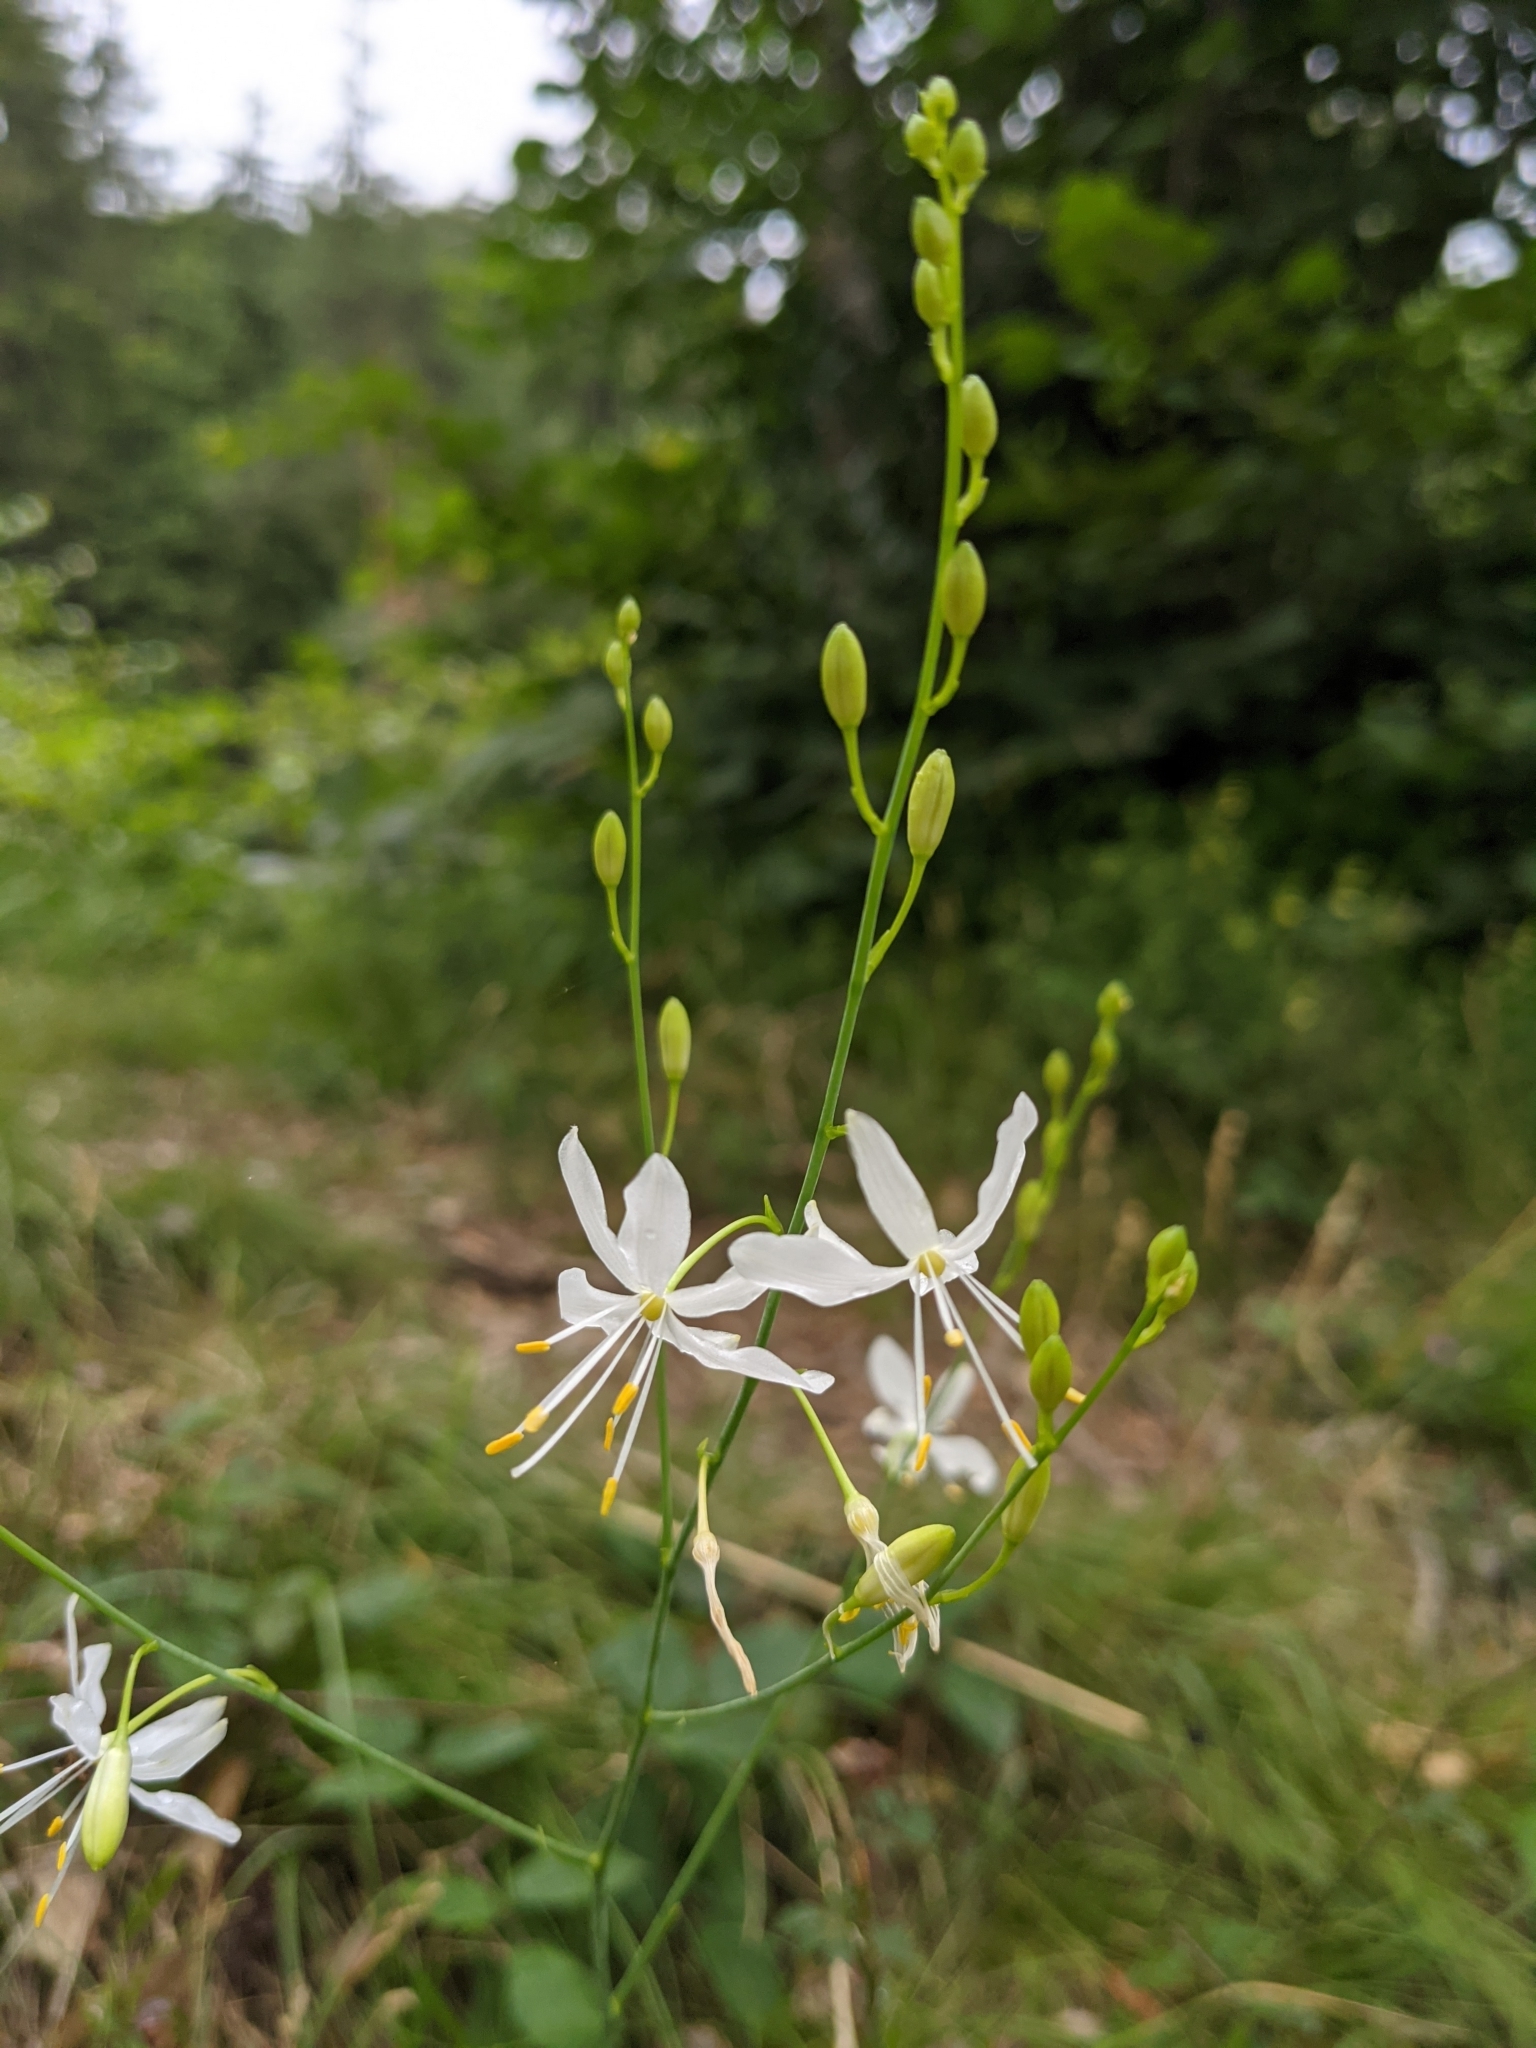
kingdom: Plantae
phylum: Tracheophyta
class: Liliopsida
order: Asparagales
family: Asparagaceae
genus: Anthericum
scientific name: Anthericum ramosum
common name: Branched st. bernard's-lily
